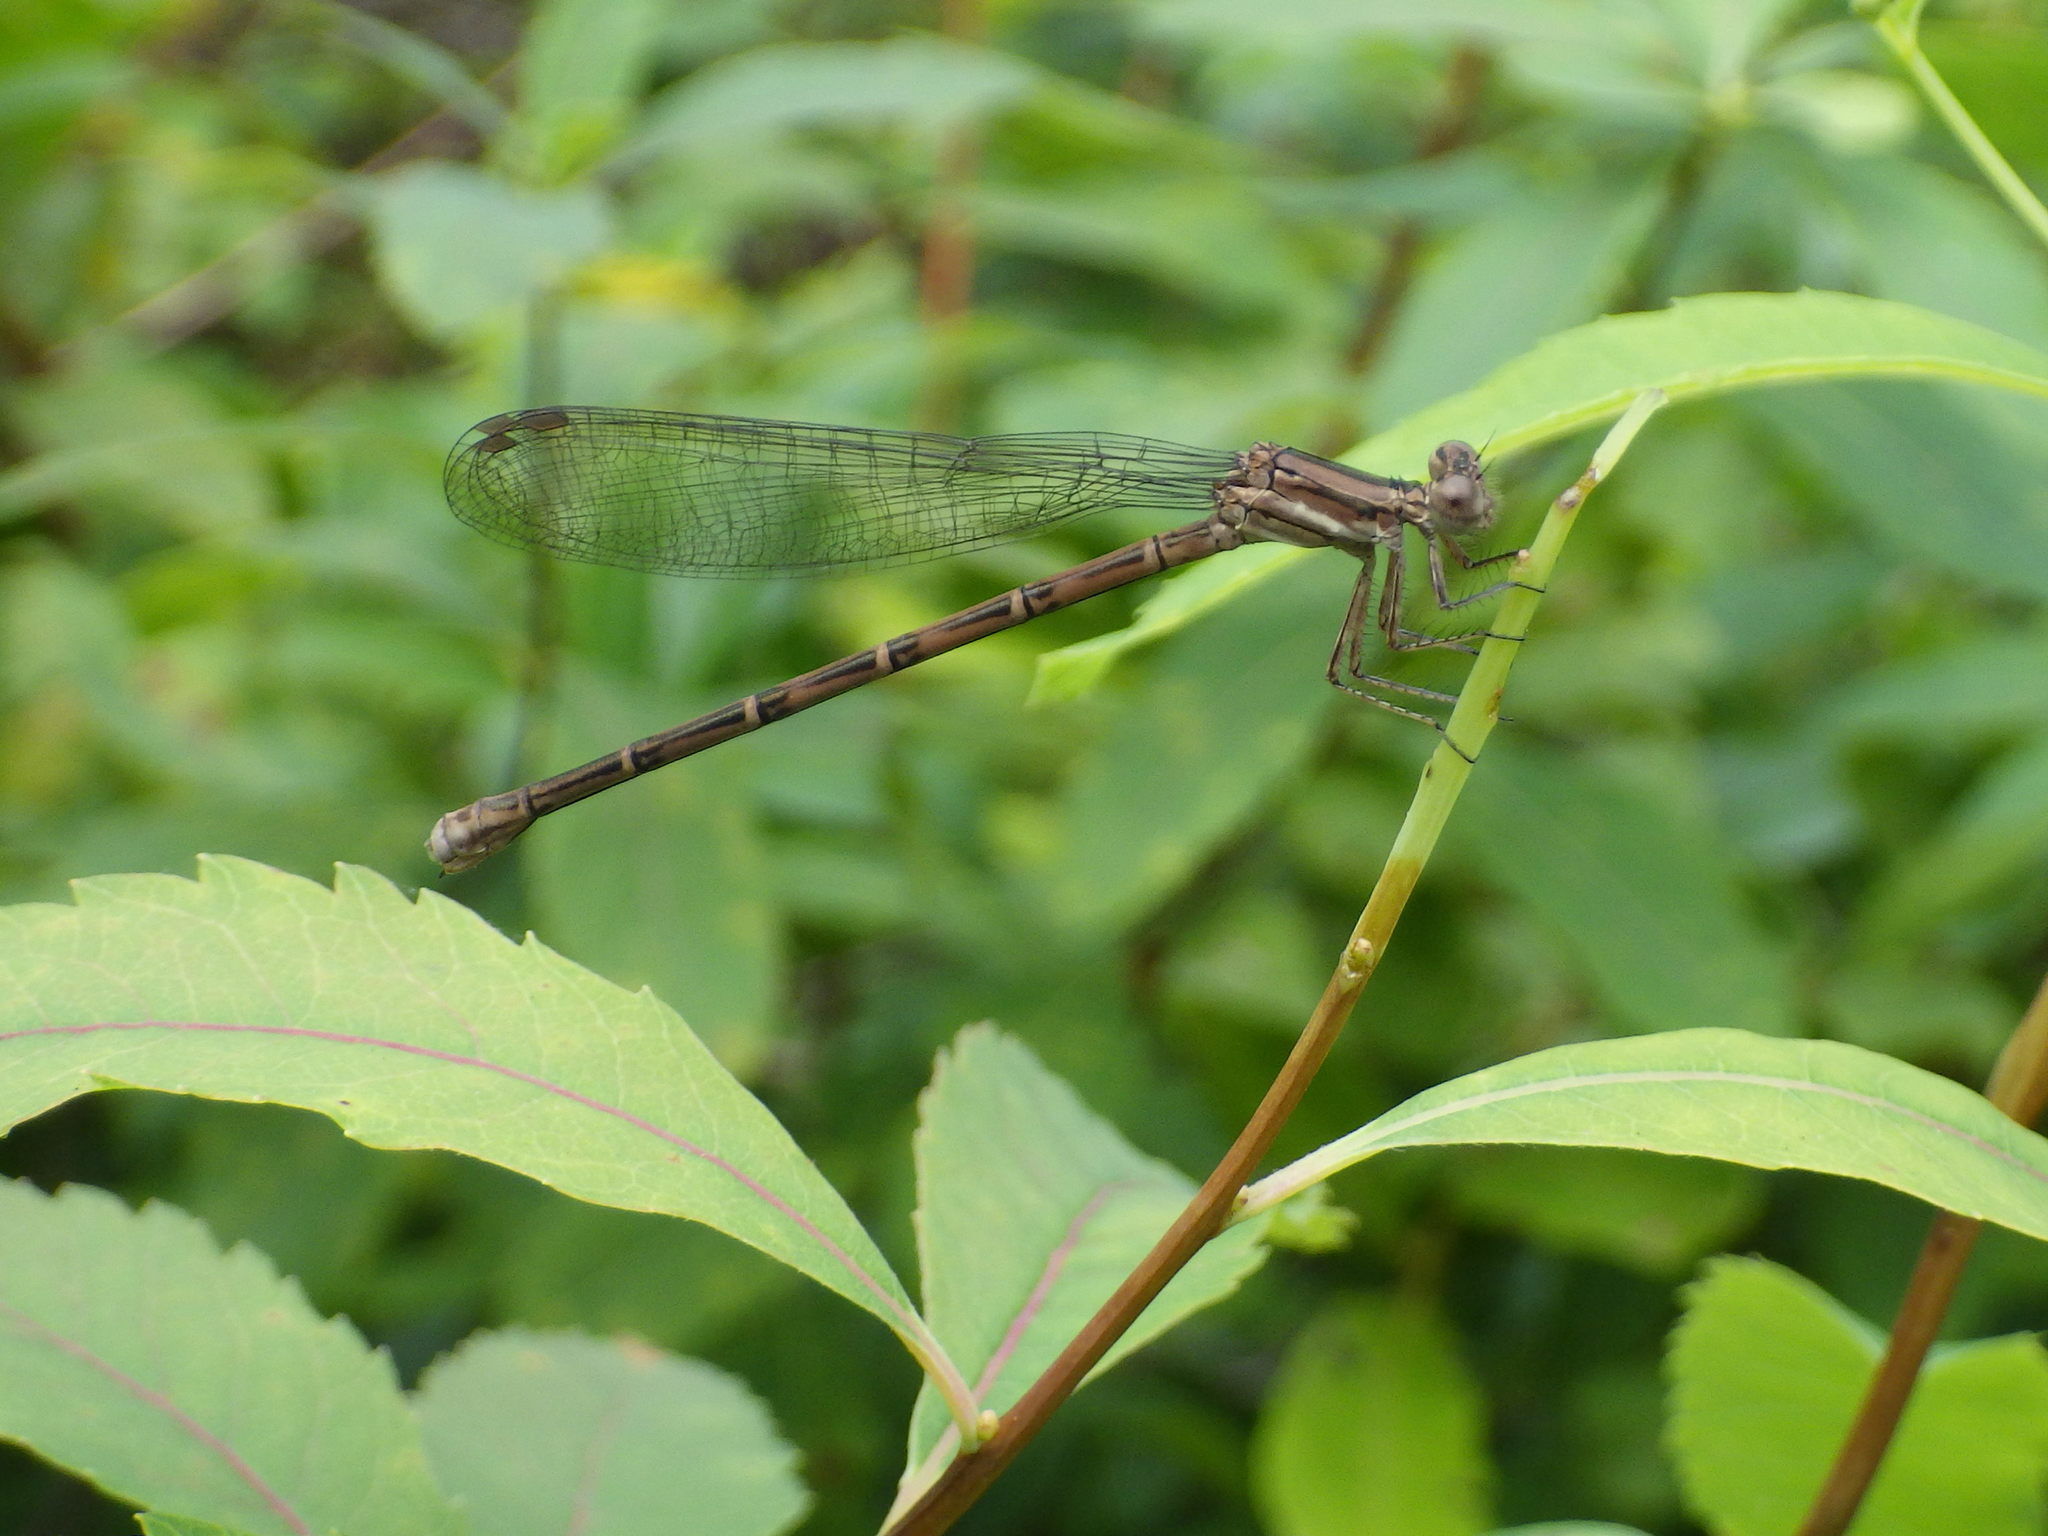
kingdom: Animalia
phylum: Arthropoda
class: Insecta
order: Odonata
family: Coenagrionidae
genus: Argia
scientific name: Argia fumipennis
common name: Variable dancer
